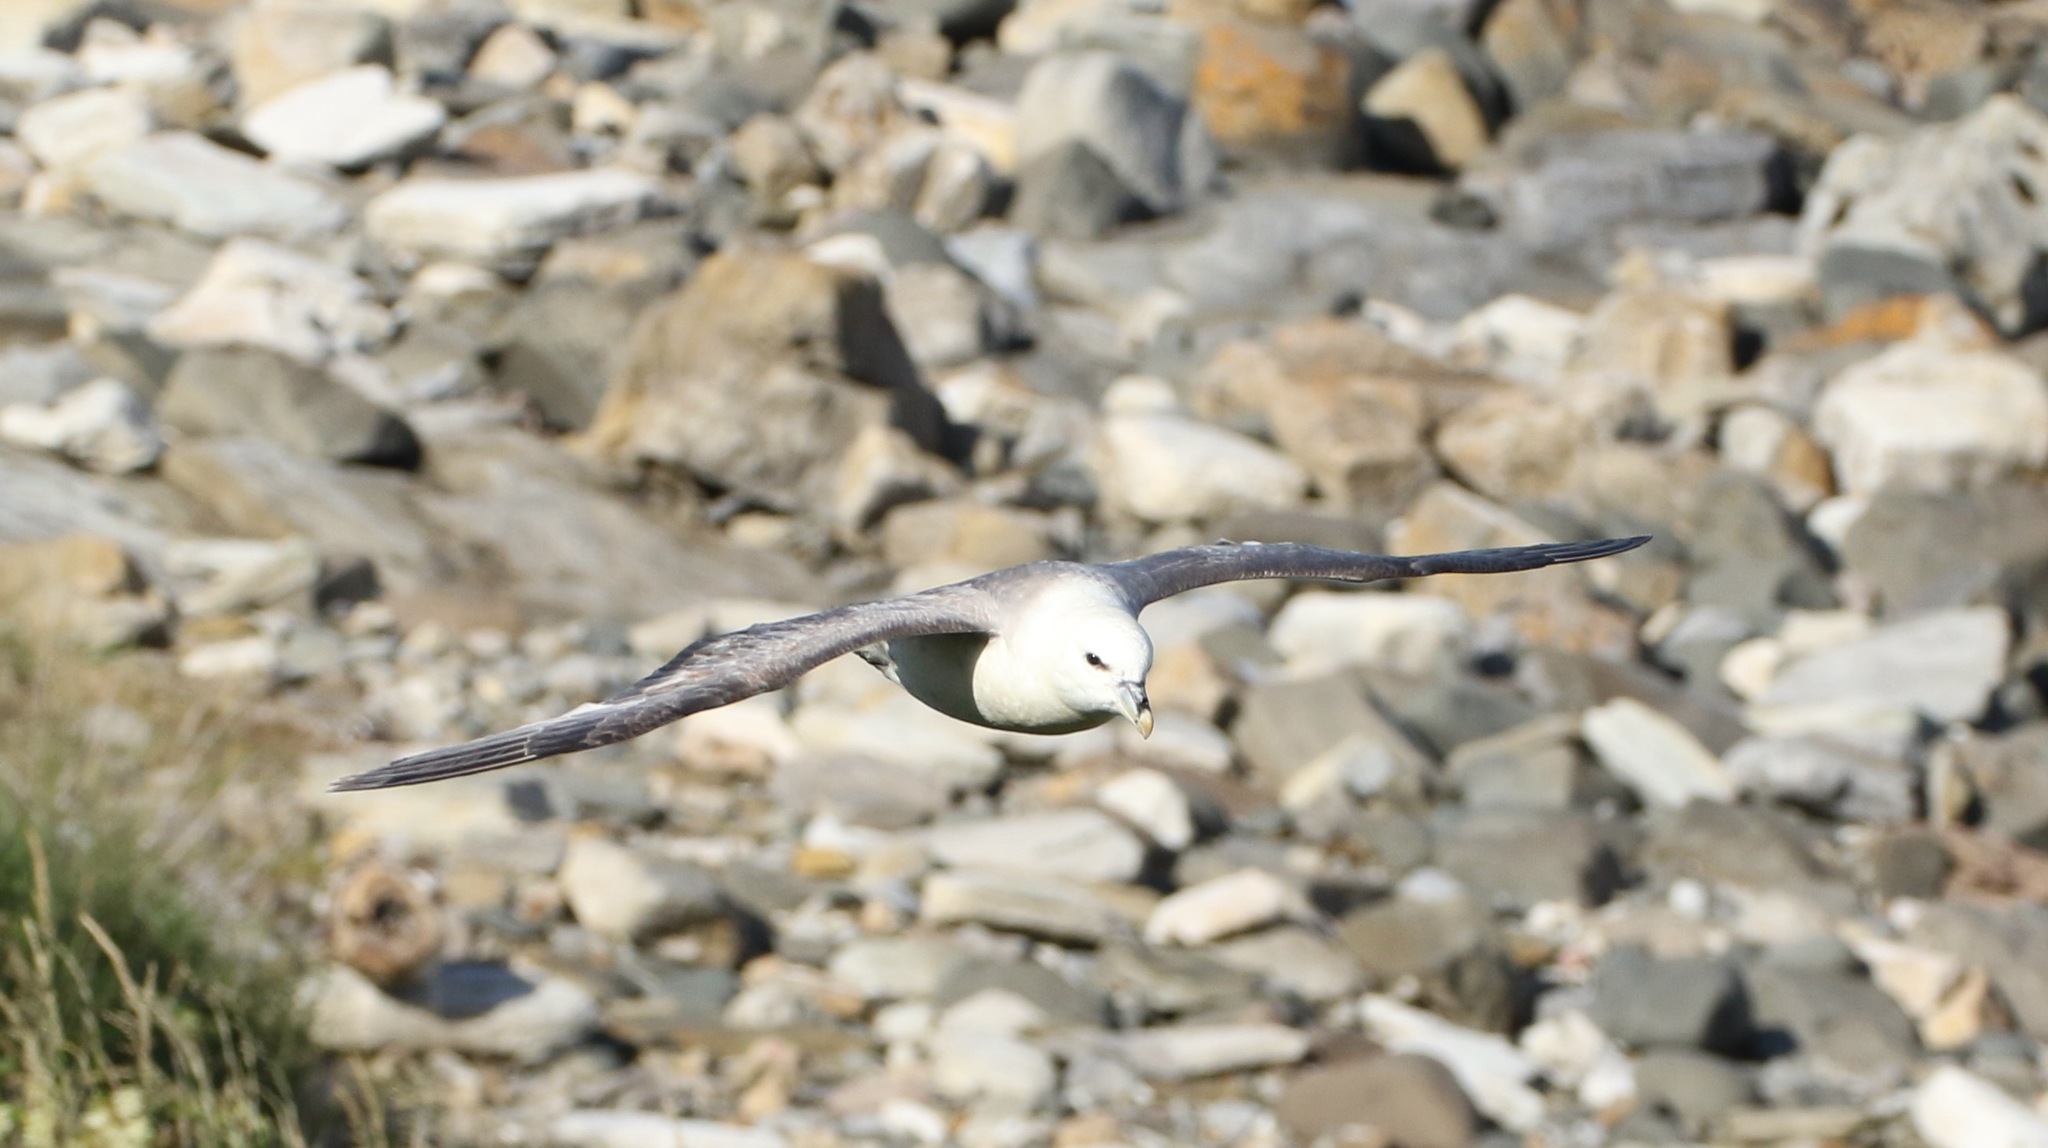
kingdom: Animalia
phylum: Chordata
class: Aves
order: Procellariiformes
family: Procellariidae
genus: Fulmarus
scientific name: Fulmarus glacialis
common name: Northern fulmar
